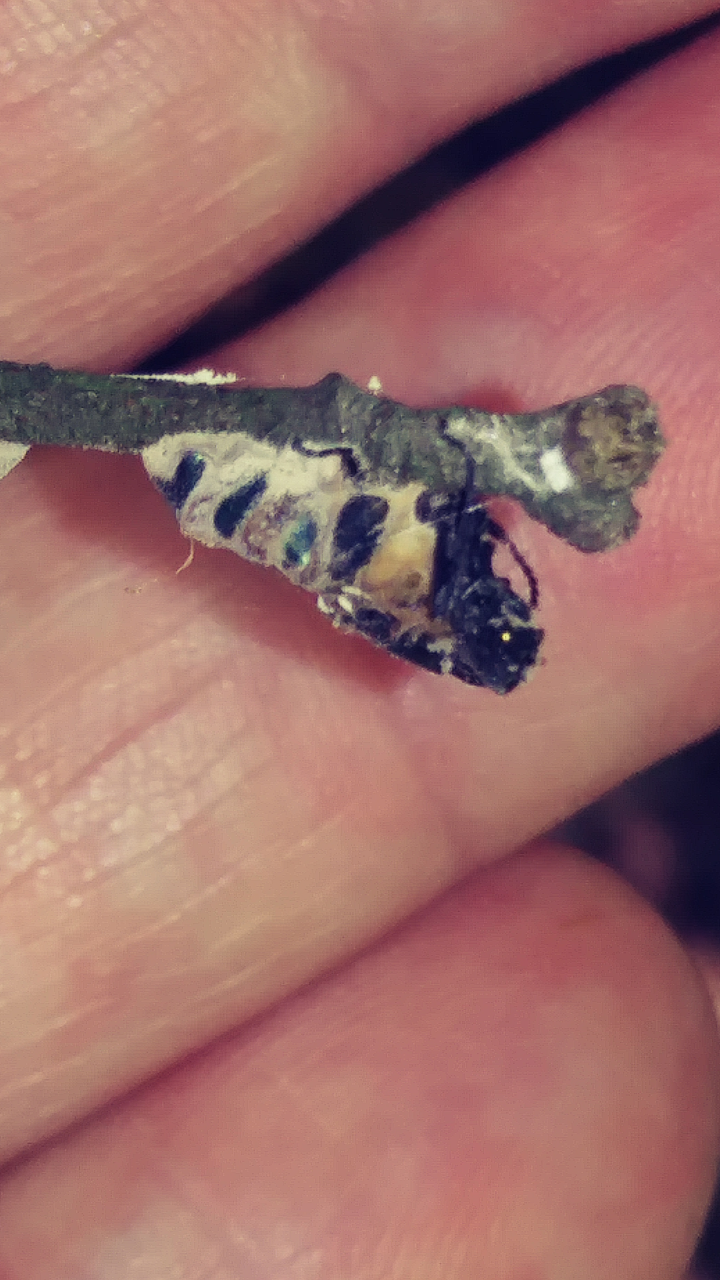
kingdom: Fungi
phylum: Entomophthoromycota
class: Entomophthoromycetes
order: Entomophthorales
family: Entomophthoraceae
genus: Entomophthora
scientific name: Entomophthora
